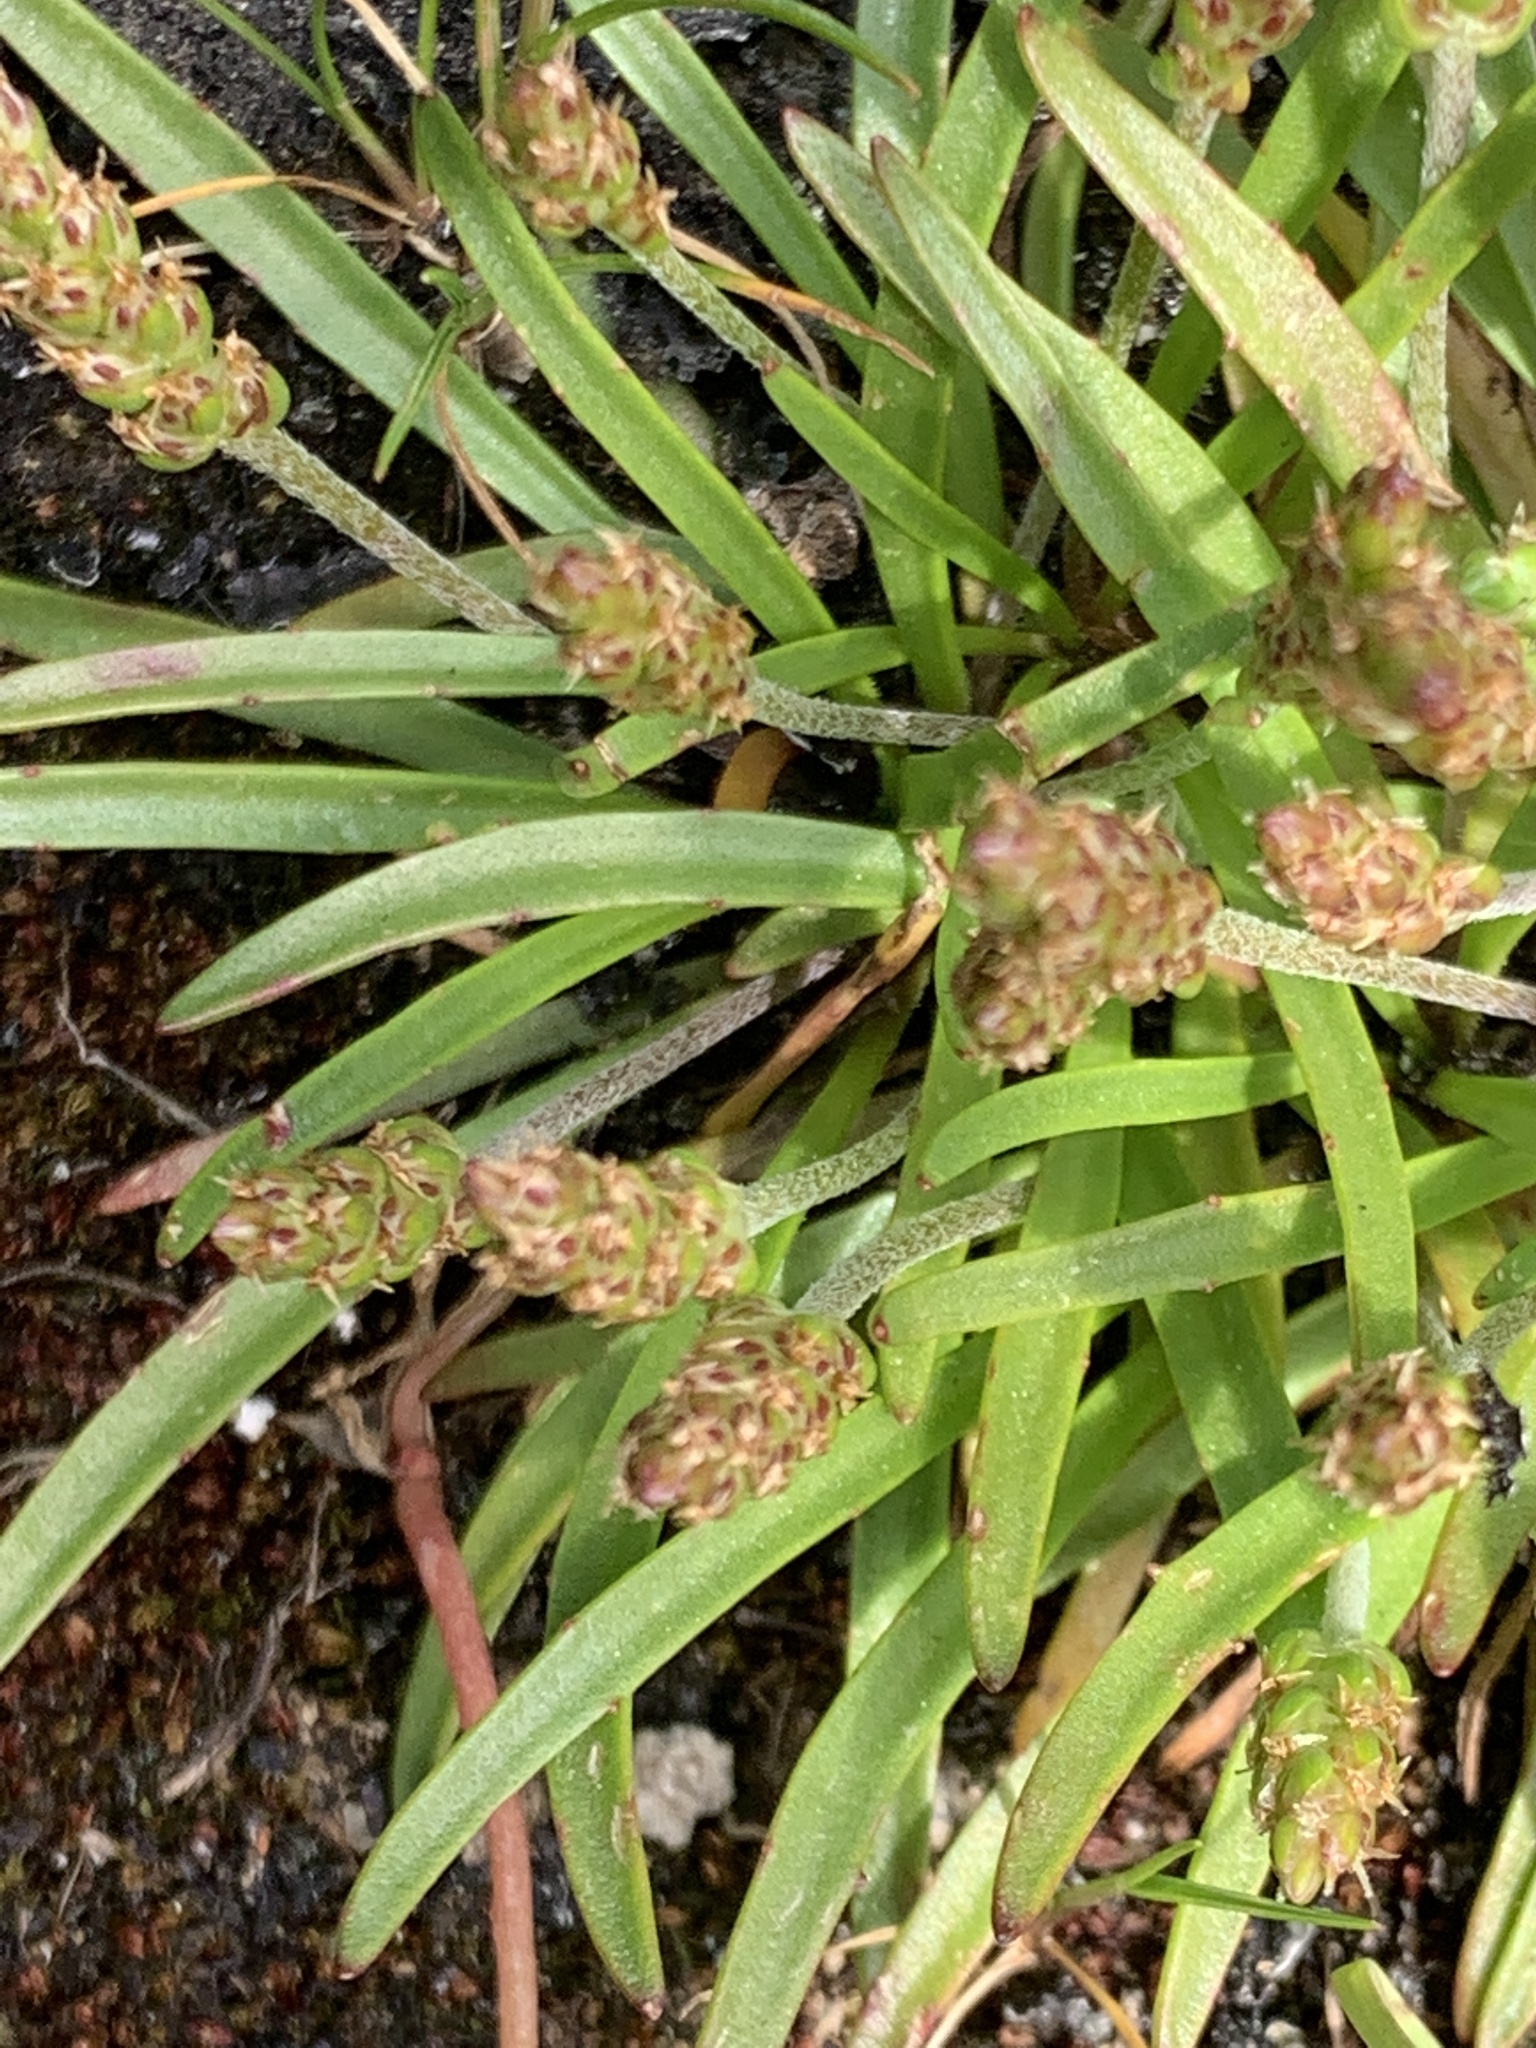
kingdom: Plantae
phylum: Tracheophyta
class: Magnoliopsida
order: Lamiales
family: Plantaginaceae
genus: Plantago
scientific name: Plantago maritima
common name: Sea plantain
